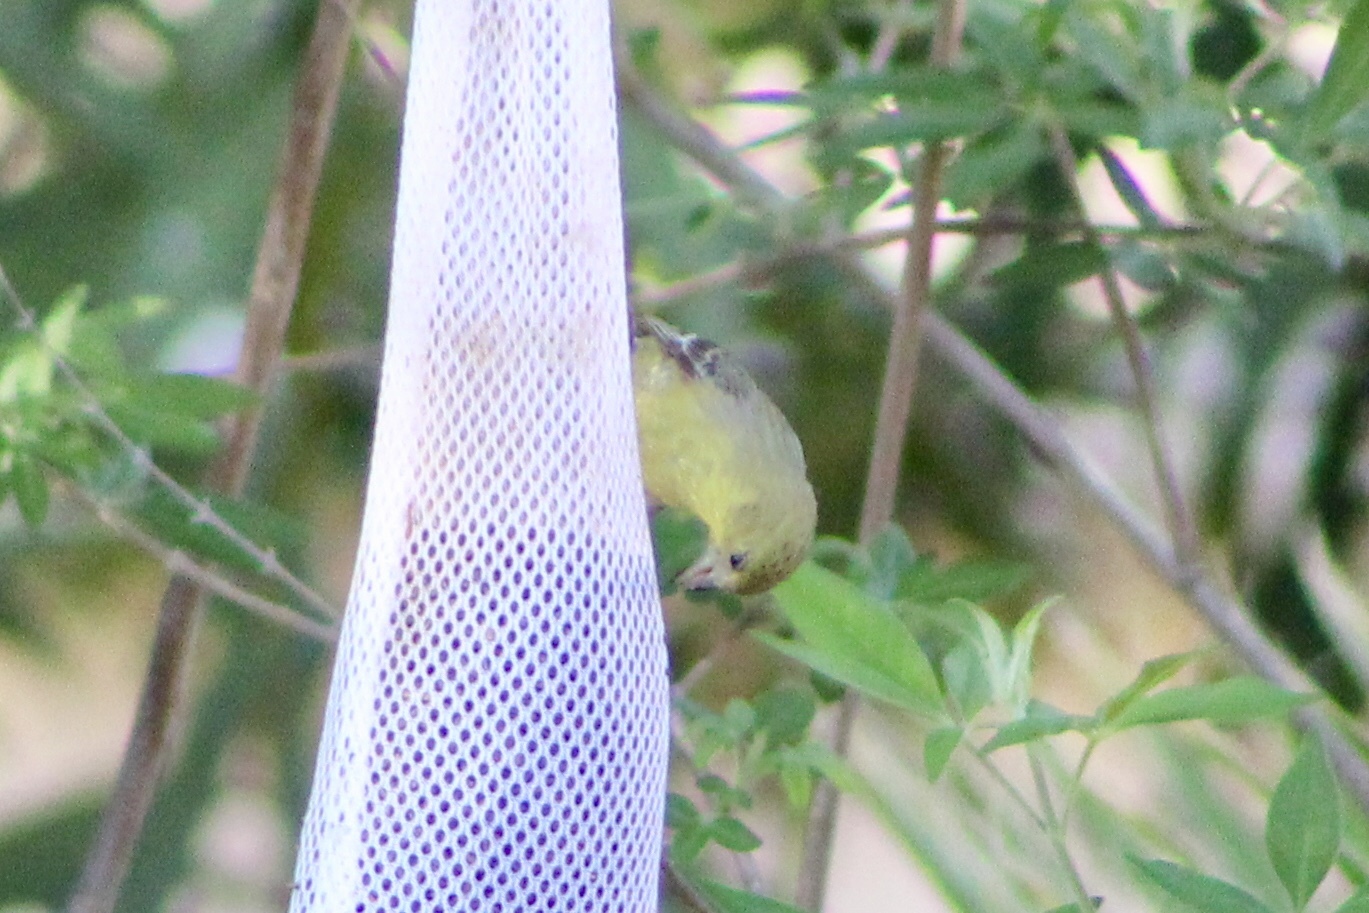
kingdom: Animalia
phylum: Chordata
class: Aves
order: Passeriformes
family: Fringillidae
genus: Spinus
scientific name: Spinus psaltria
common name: Lesser goldfinch
